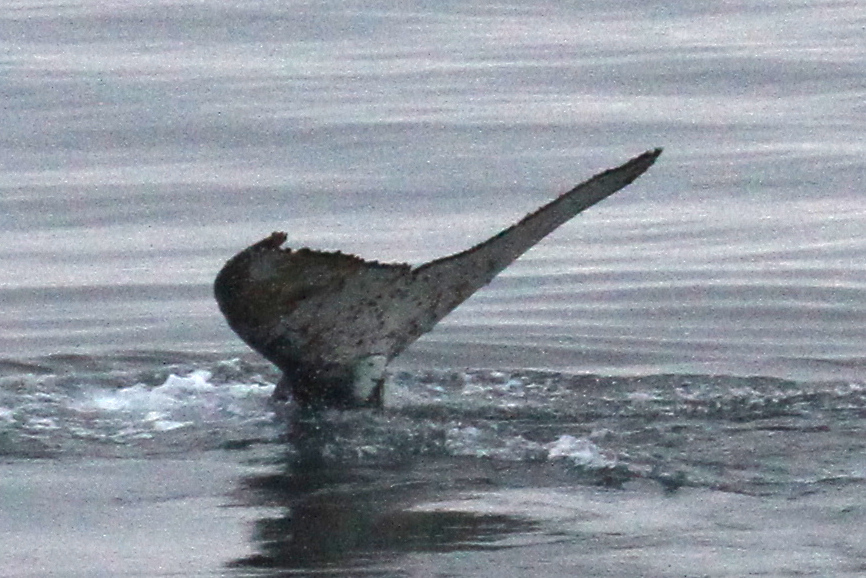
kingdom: Animalia
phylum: Chordata
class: Mammalia
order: Cetacea
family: Balaenopteridae
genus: Megaptera
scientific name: Megaptera novaeangliae
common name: Humpback whale
